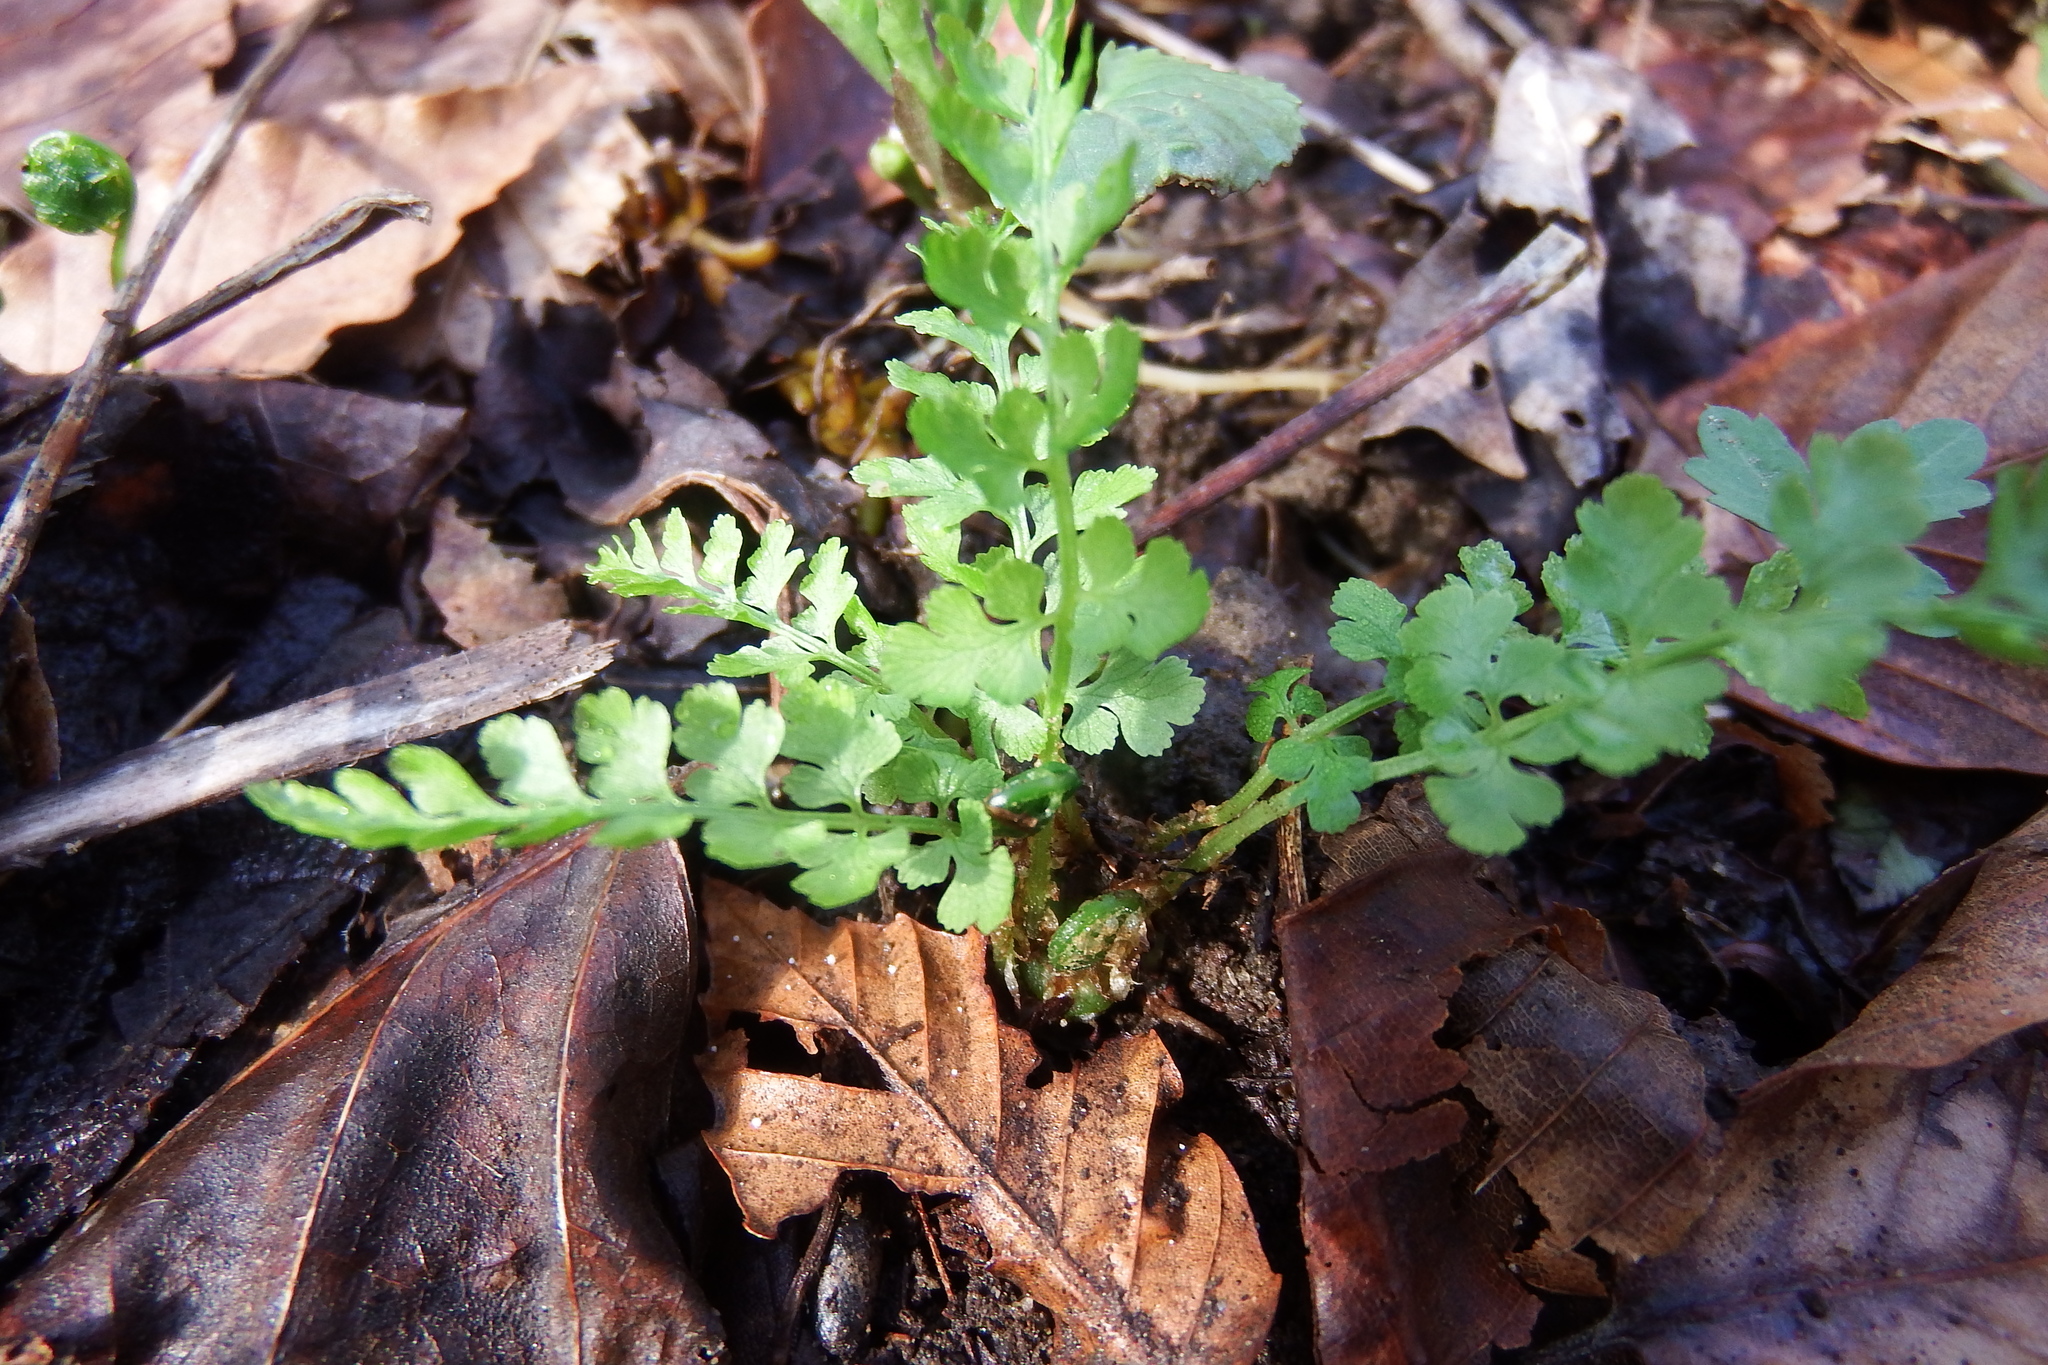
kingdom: Plantae
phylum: Tracheophyta
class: Polypodiopsida
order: Polypodiales
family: Cystopteridaceae
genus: Cystopteris
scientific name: Cystopteris protrusa
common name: Lowland brittle fern
